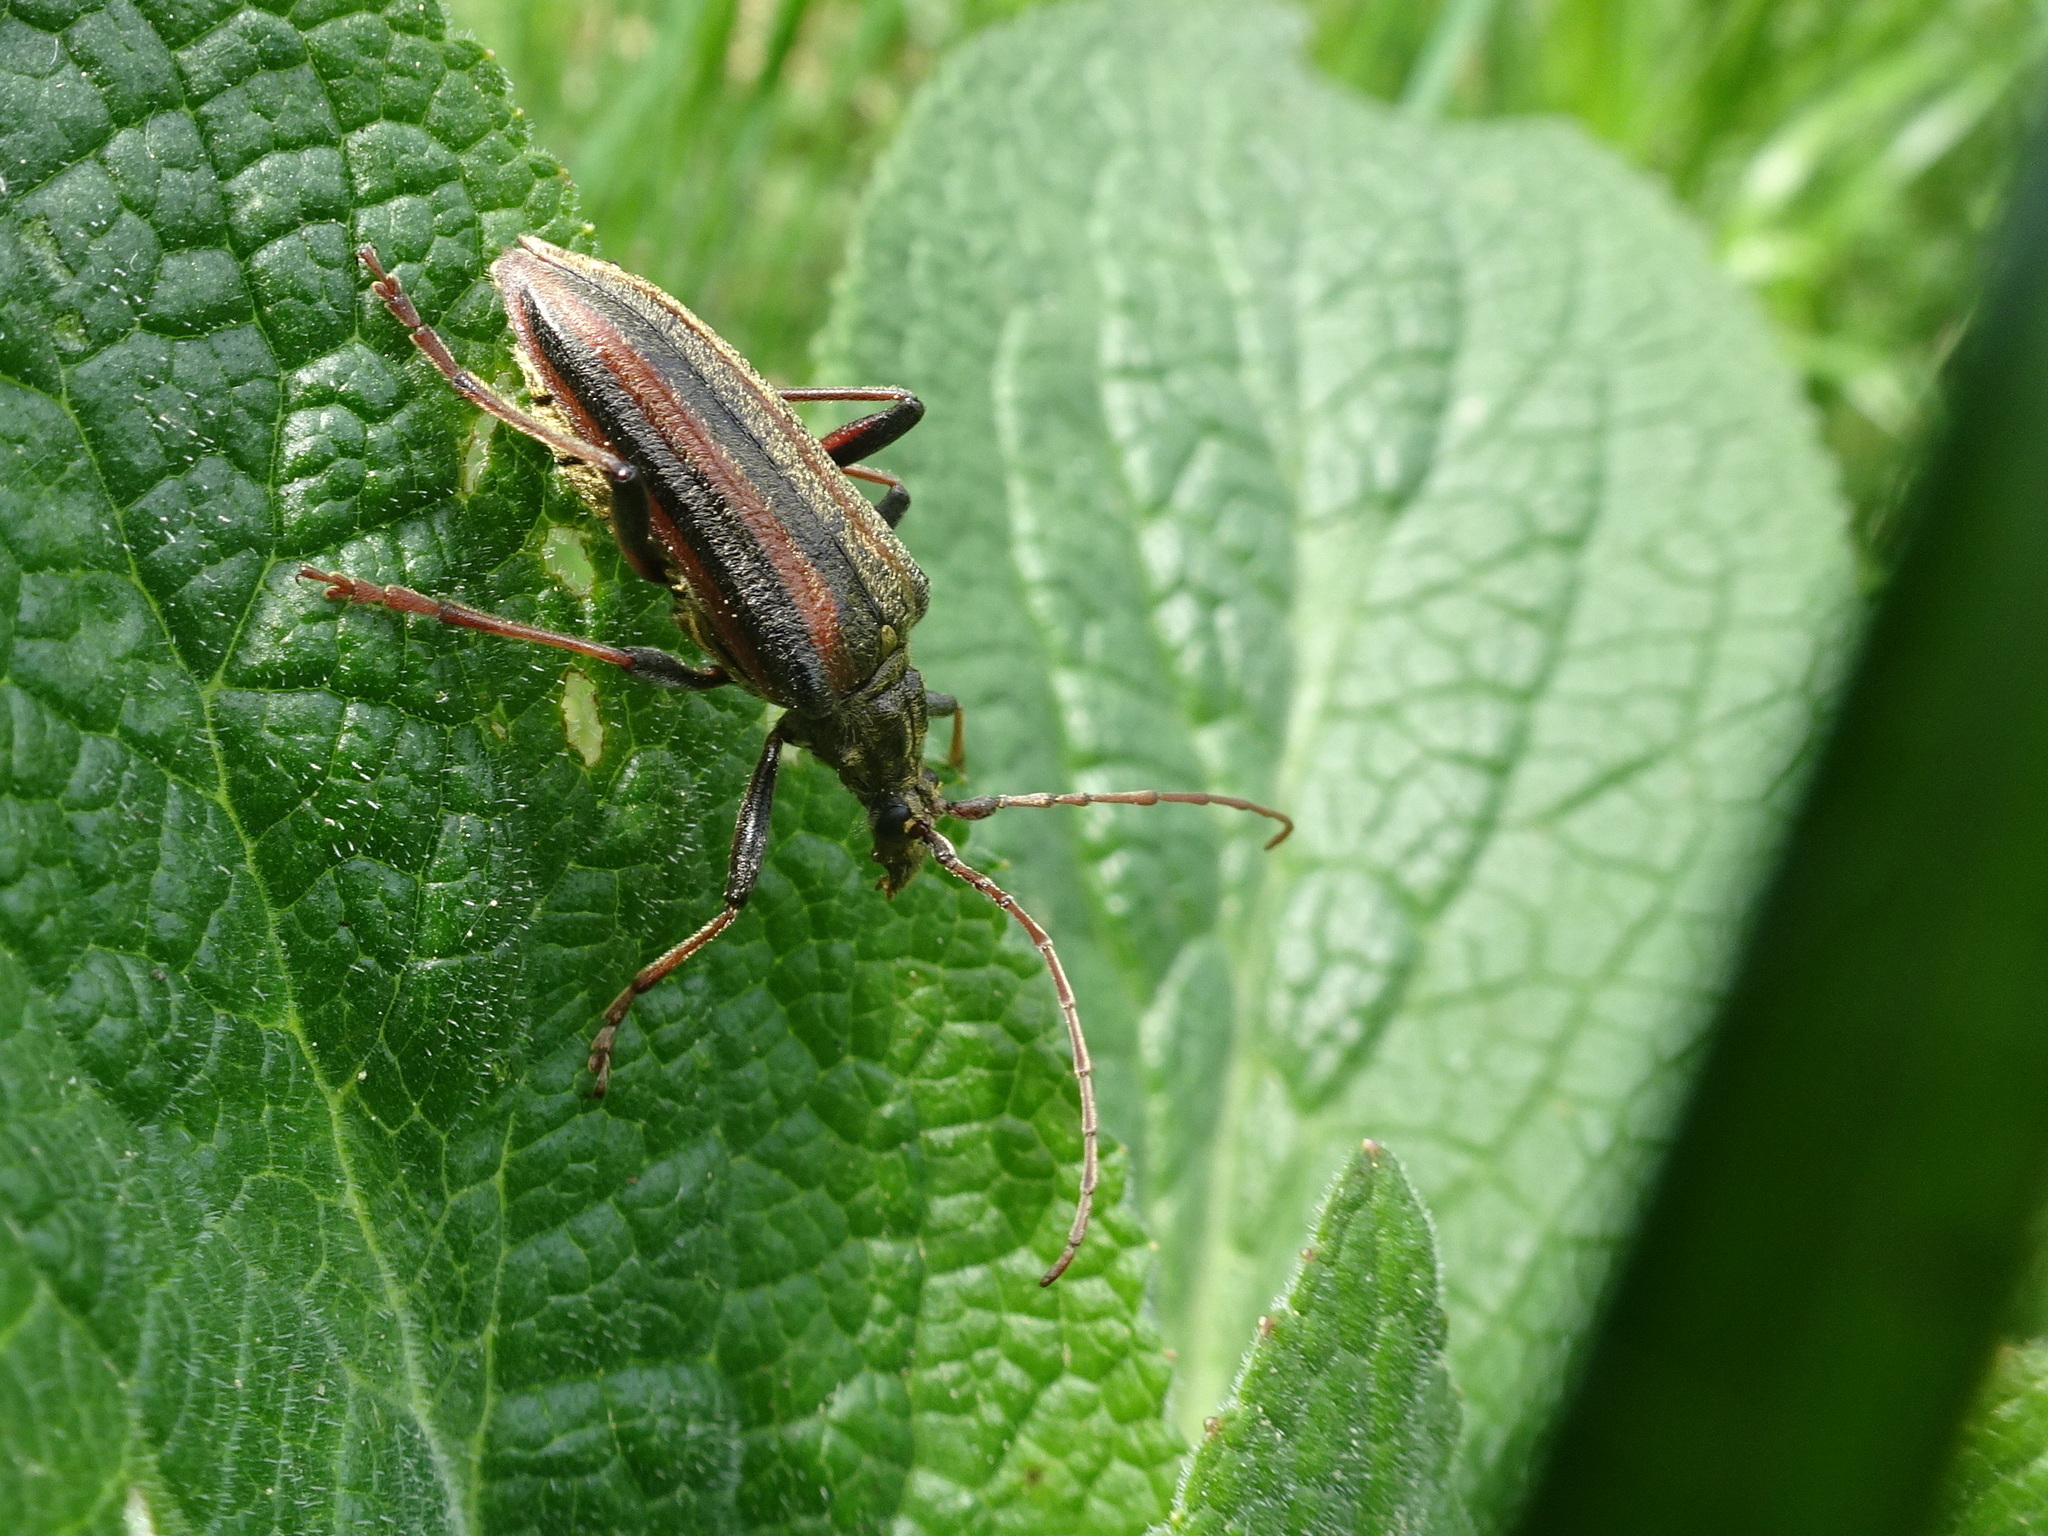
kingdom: Animalia
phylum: Arthropoda
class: Insecta
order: Coleoptera
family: Cerambycidae
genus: Oxymirus
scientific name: Oxymirus cursor
